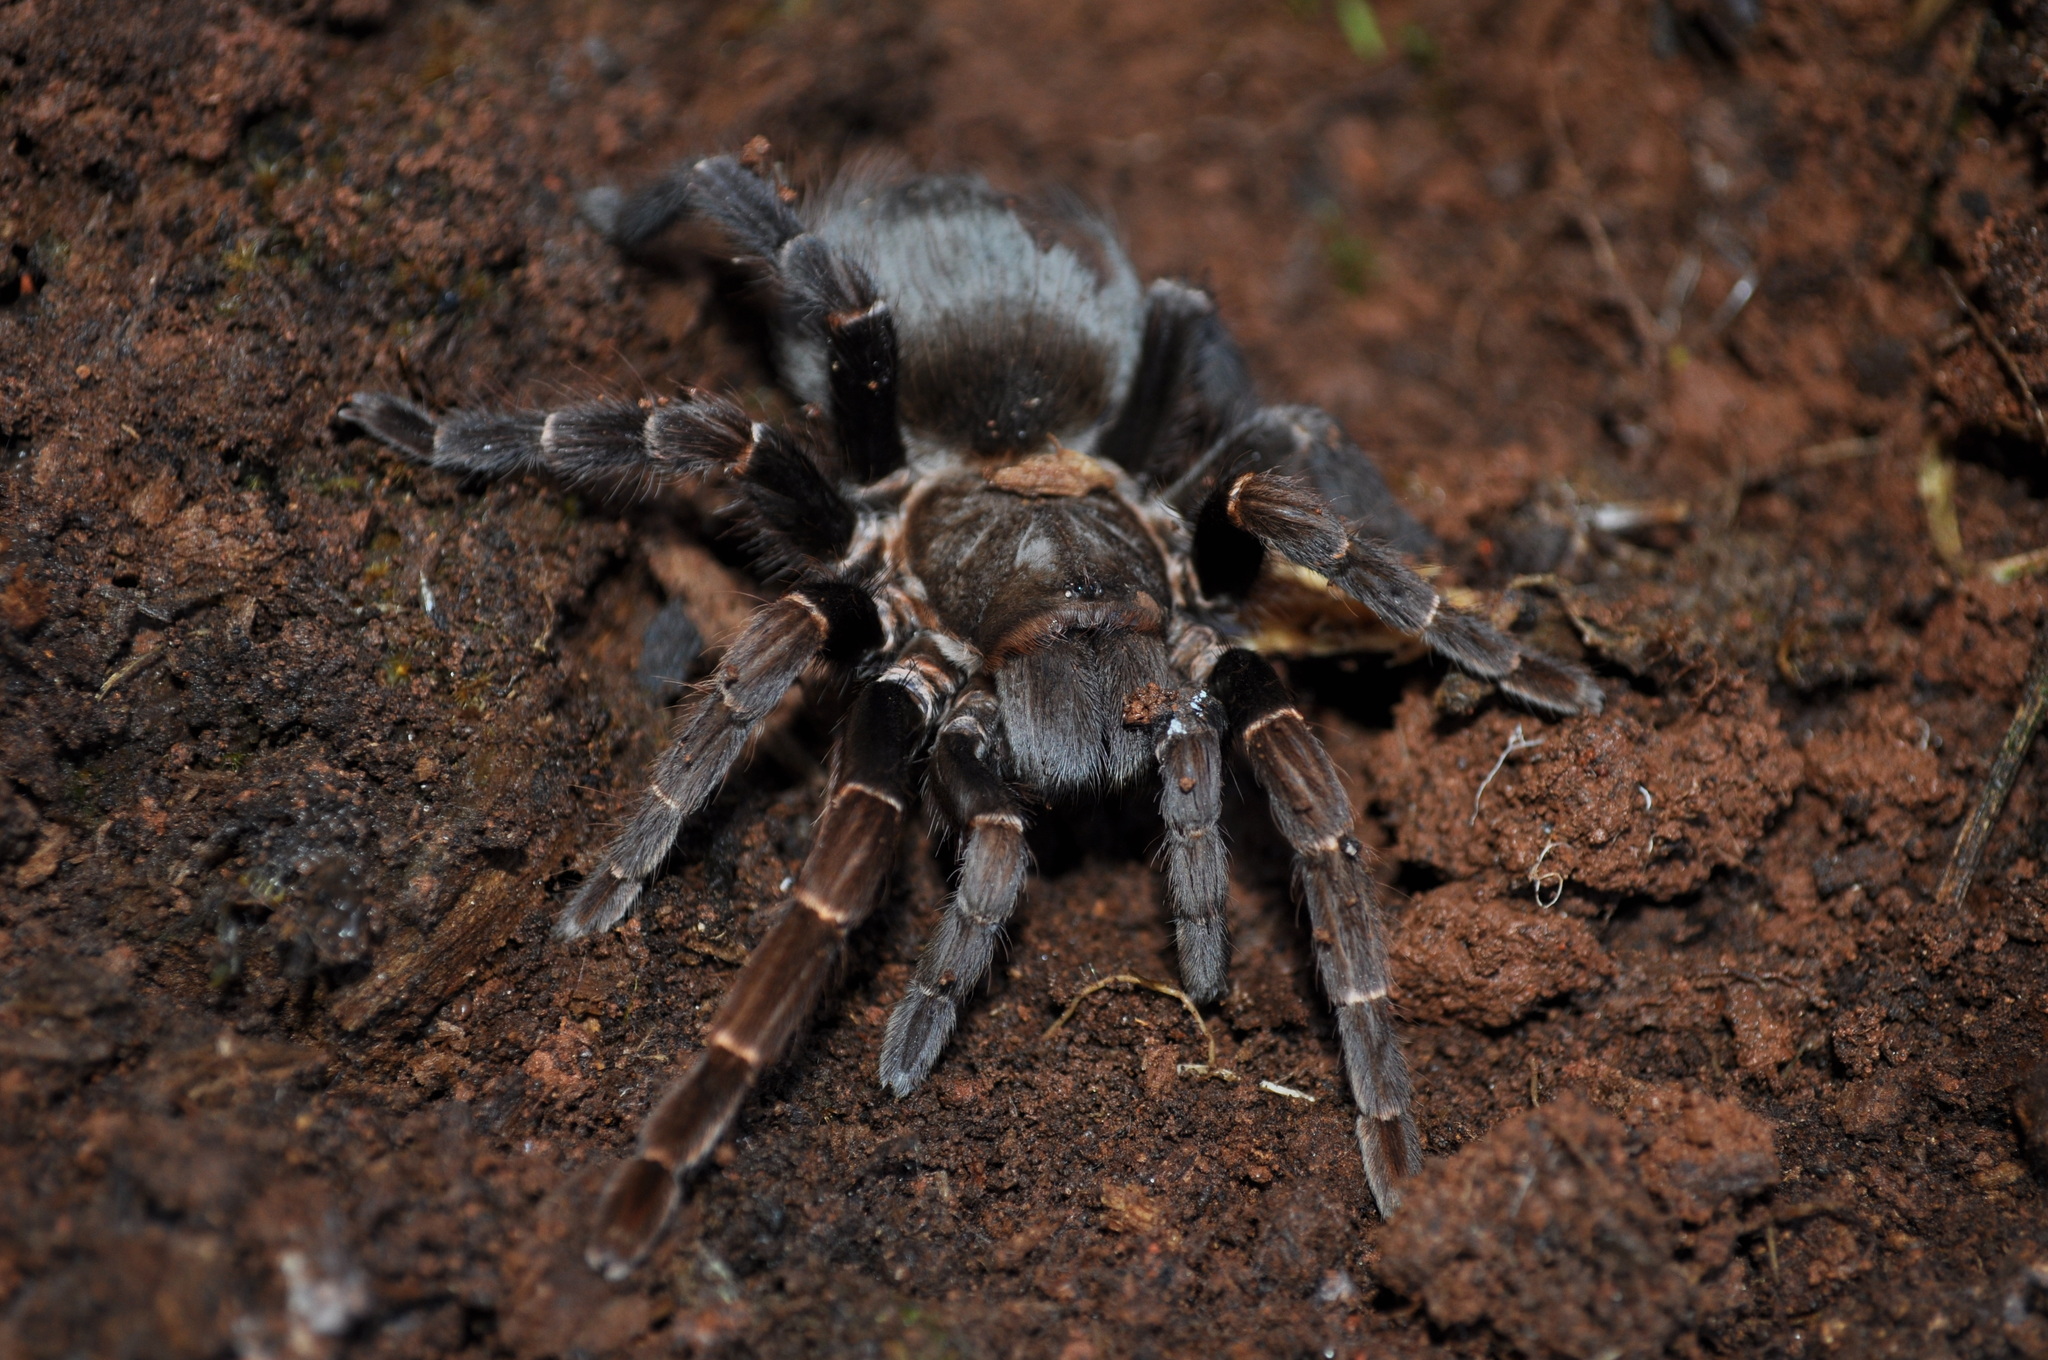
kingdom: Animalia
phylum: Arthropoda
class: Arachnida
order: Araneae
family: Theraphosidae
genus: Pterinopelma
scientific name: Pterinopelma longisternale
